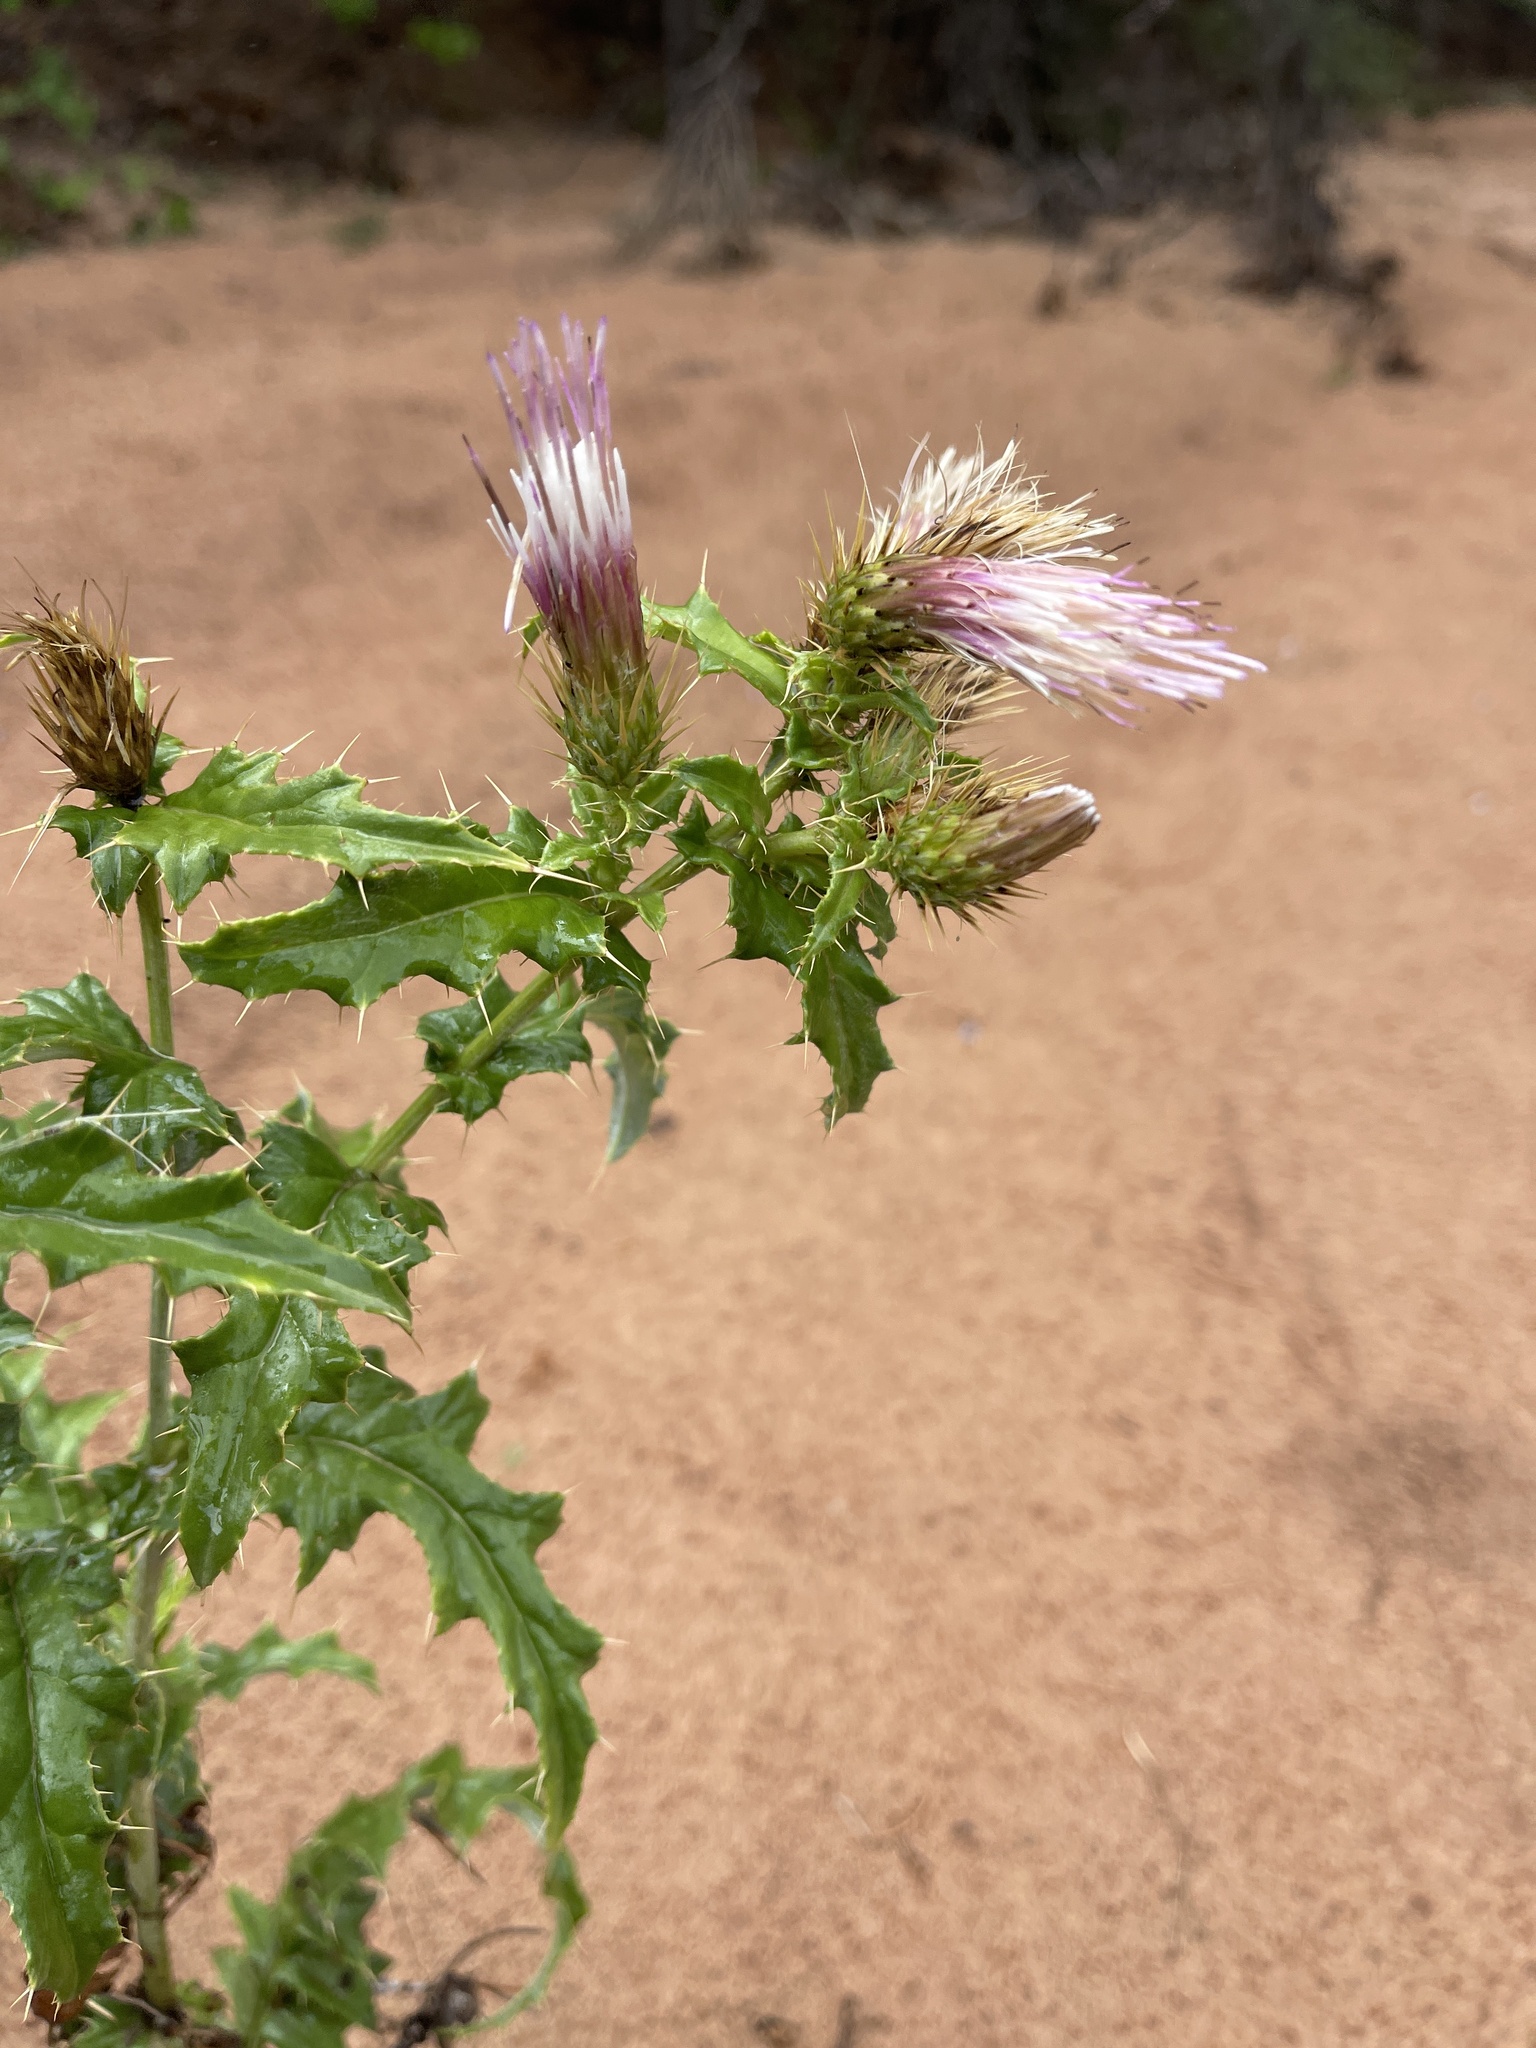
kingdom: Plantae
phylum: Tracheophyta
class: Magnoliopsida
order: Asterales
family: Asteraceae
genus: Cirsium
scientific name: Cirsium arizonicum
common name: Arizona thistle
